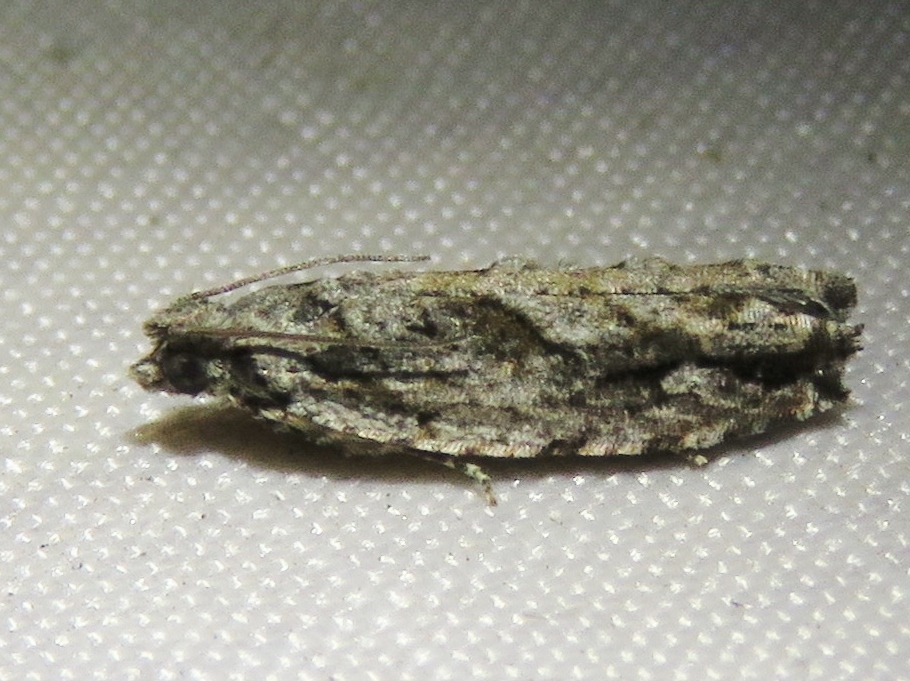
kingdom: Animalia
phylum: Arthropoda
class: Insecta
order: Lepidoptera
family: Tortricidae
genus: Gretchena
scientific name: Gretchena bolliana
